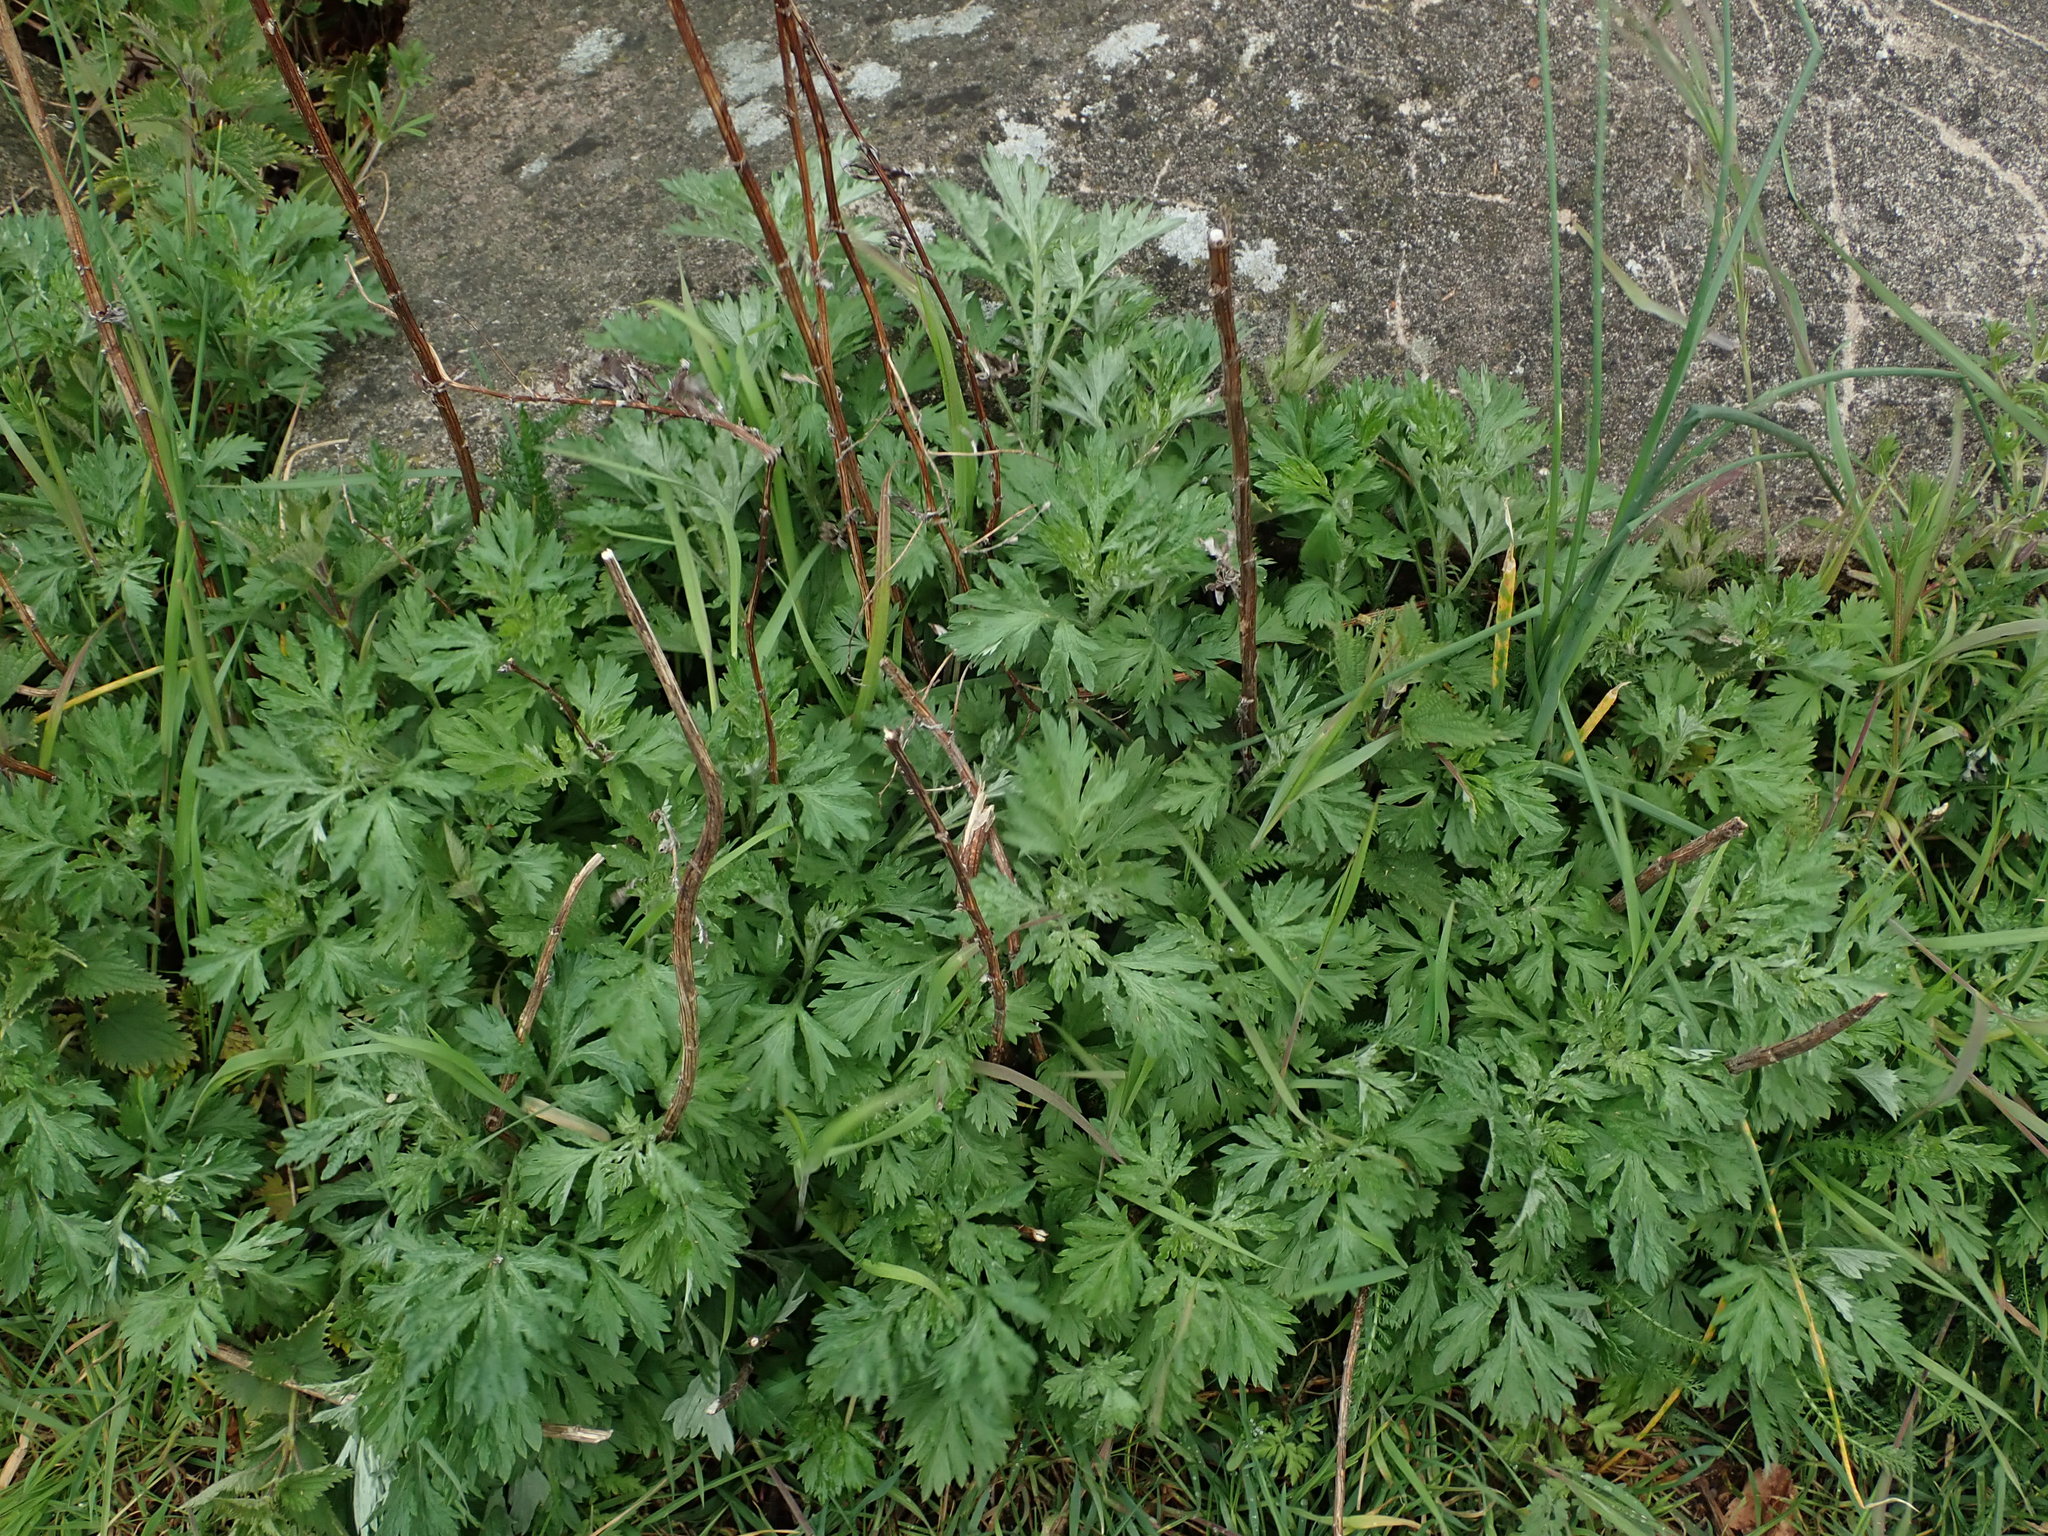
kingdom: Plantae
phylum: Tracheophyta
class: Magnoliopsida
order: Asterales
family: Asteraceae
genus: Artemisia
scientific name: Artemisia vulgaris
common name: Mugwort
